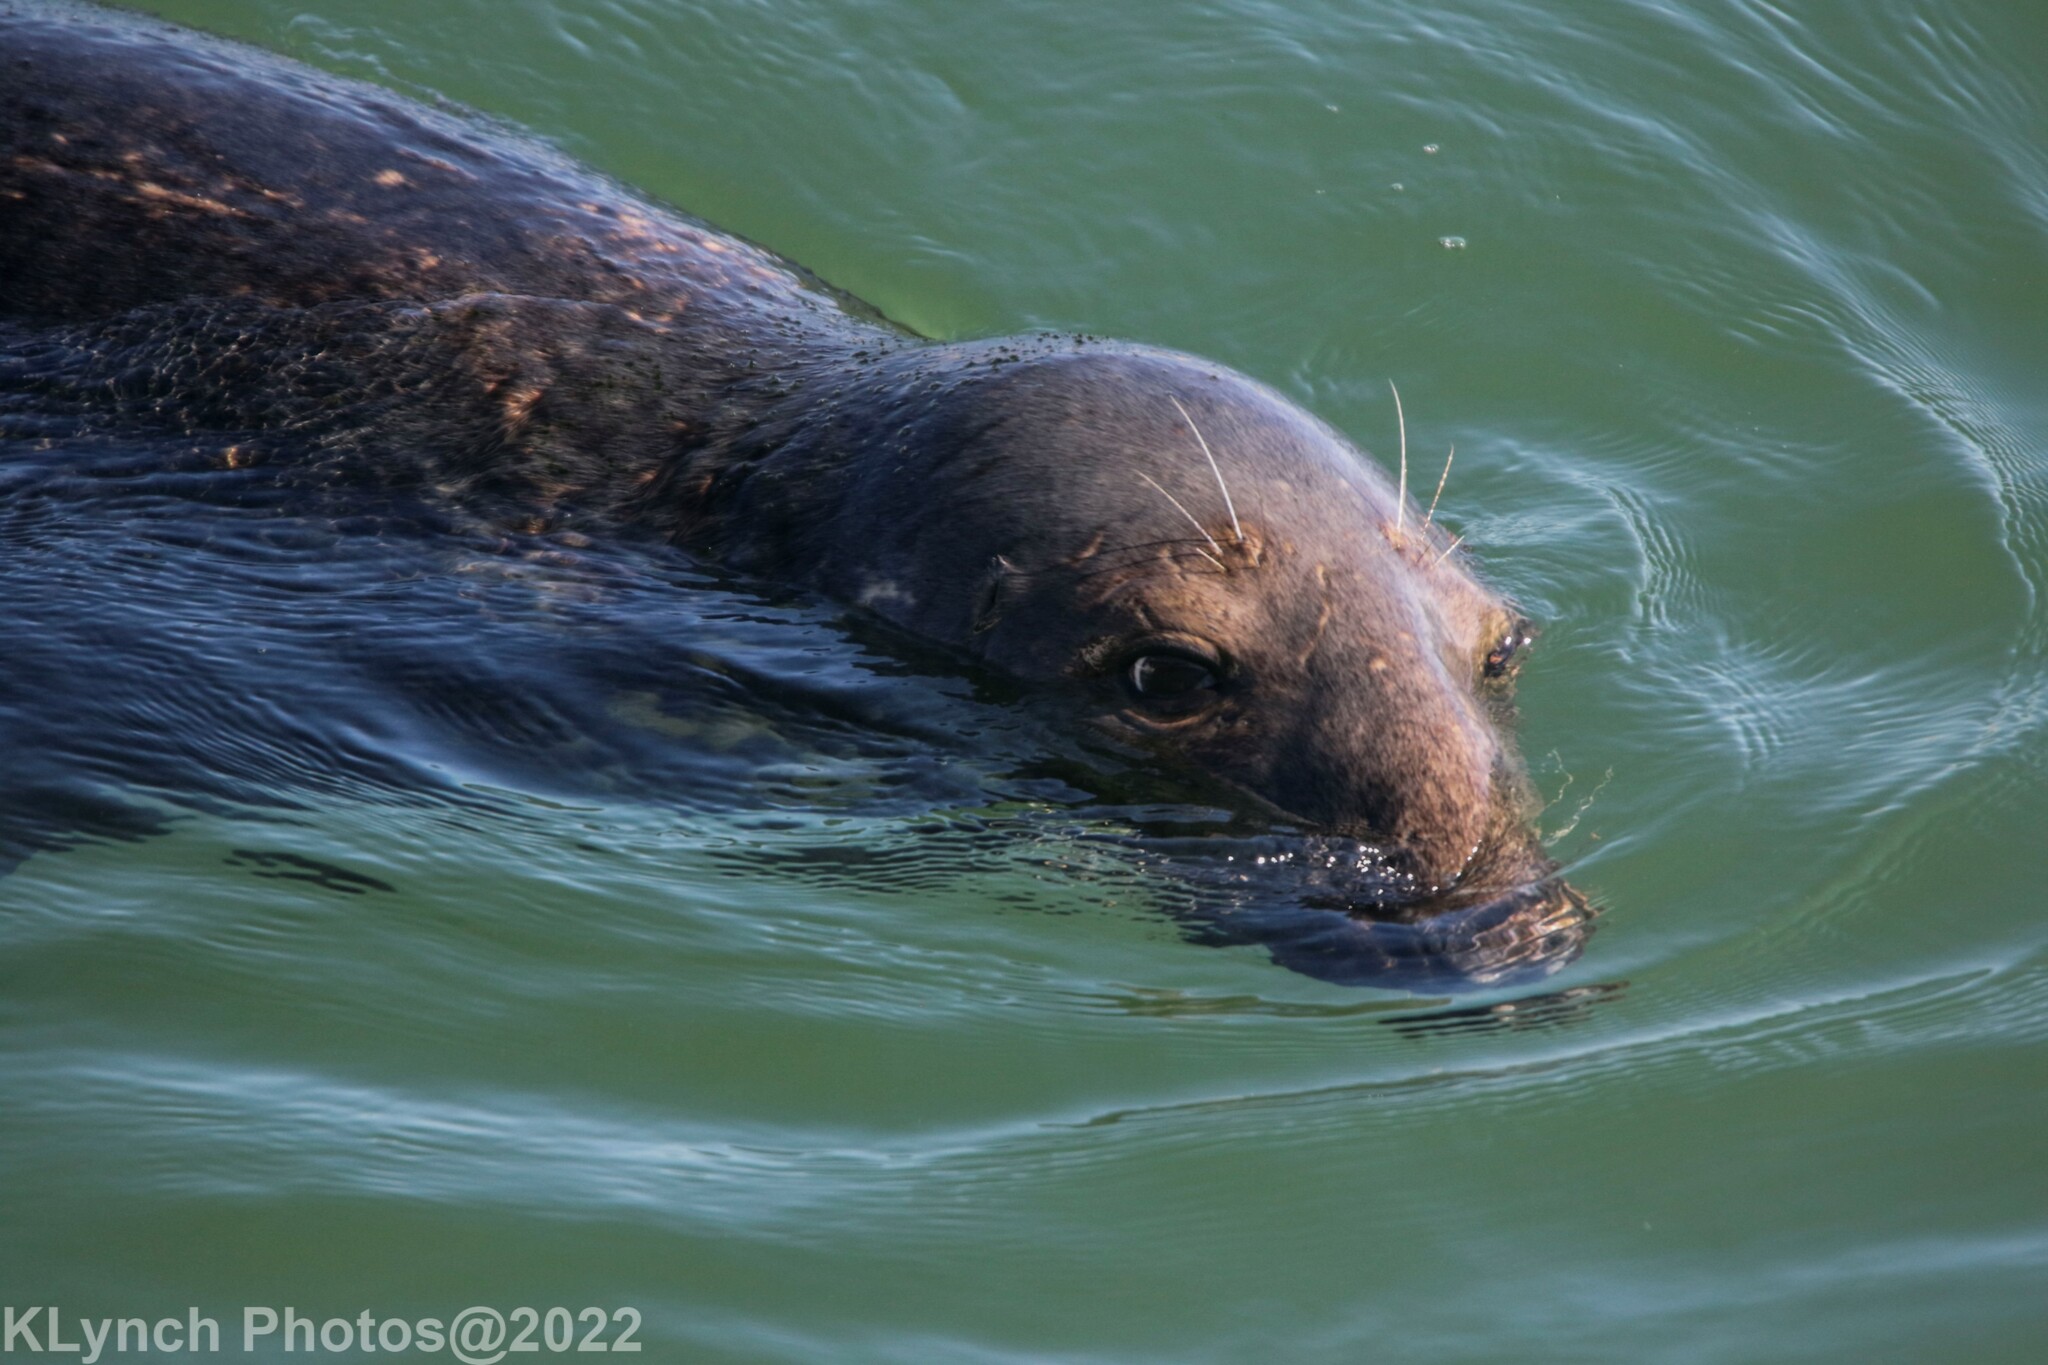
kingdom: Animalia
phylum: Chordata
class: Mammalia
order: Carnivora
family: Phocidae
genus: Halichoerus
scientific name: Halichoerus grypus
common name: Grey seal
